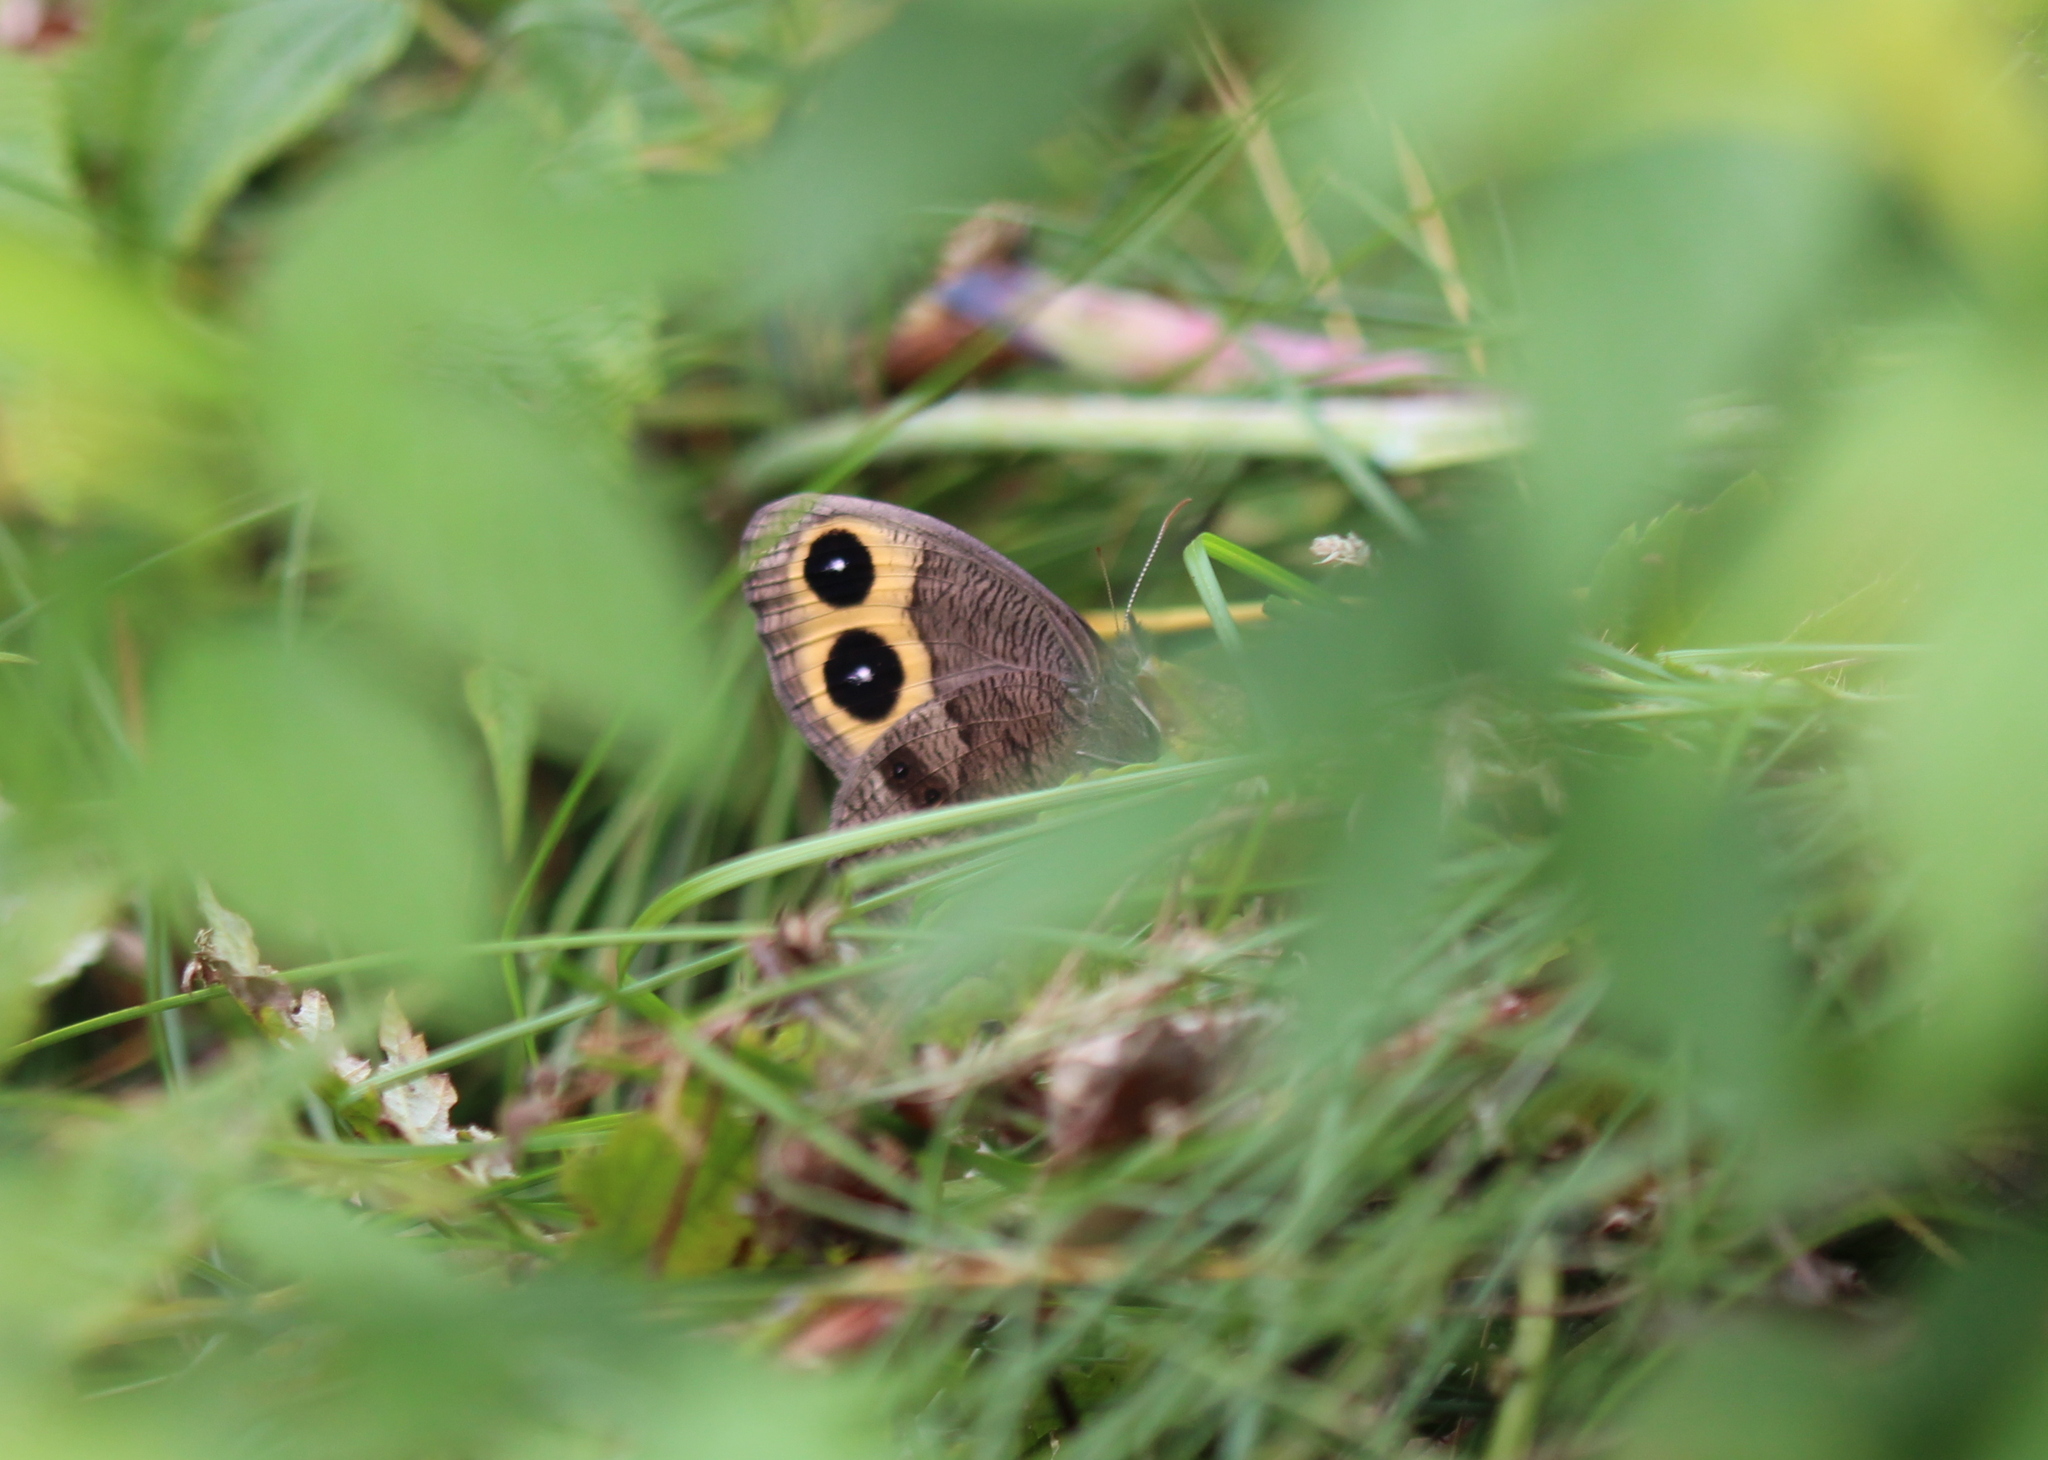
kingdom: Animalia
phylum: Arthropoda
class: Insecta
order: Lepidoptera
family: Nymphalidae
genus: Cercyonis
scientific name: Cercyonis pegala
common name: Common wood-nymph
